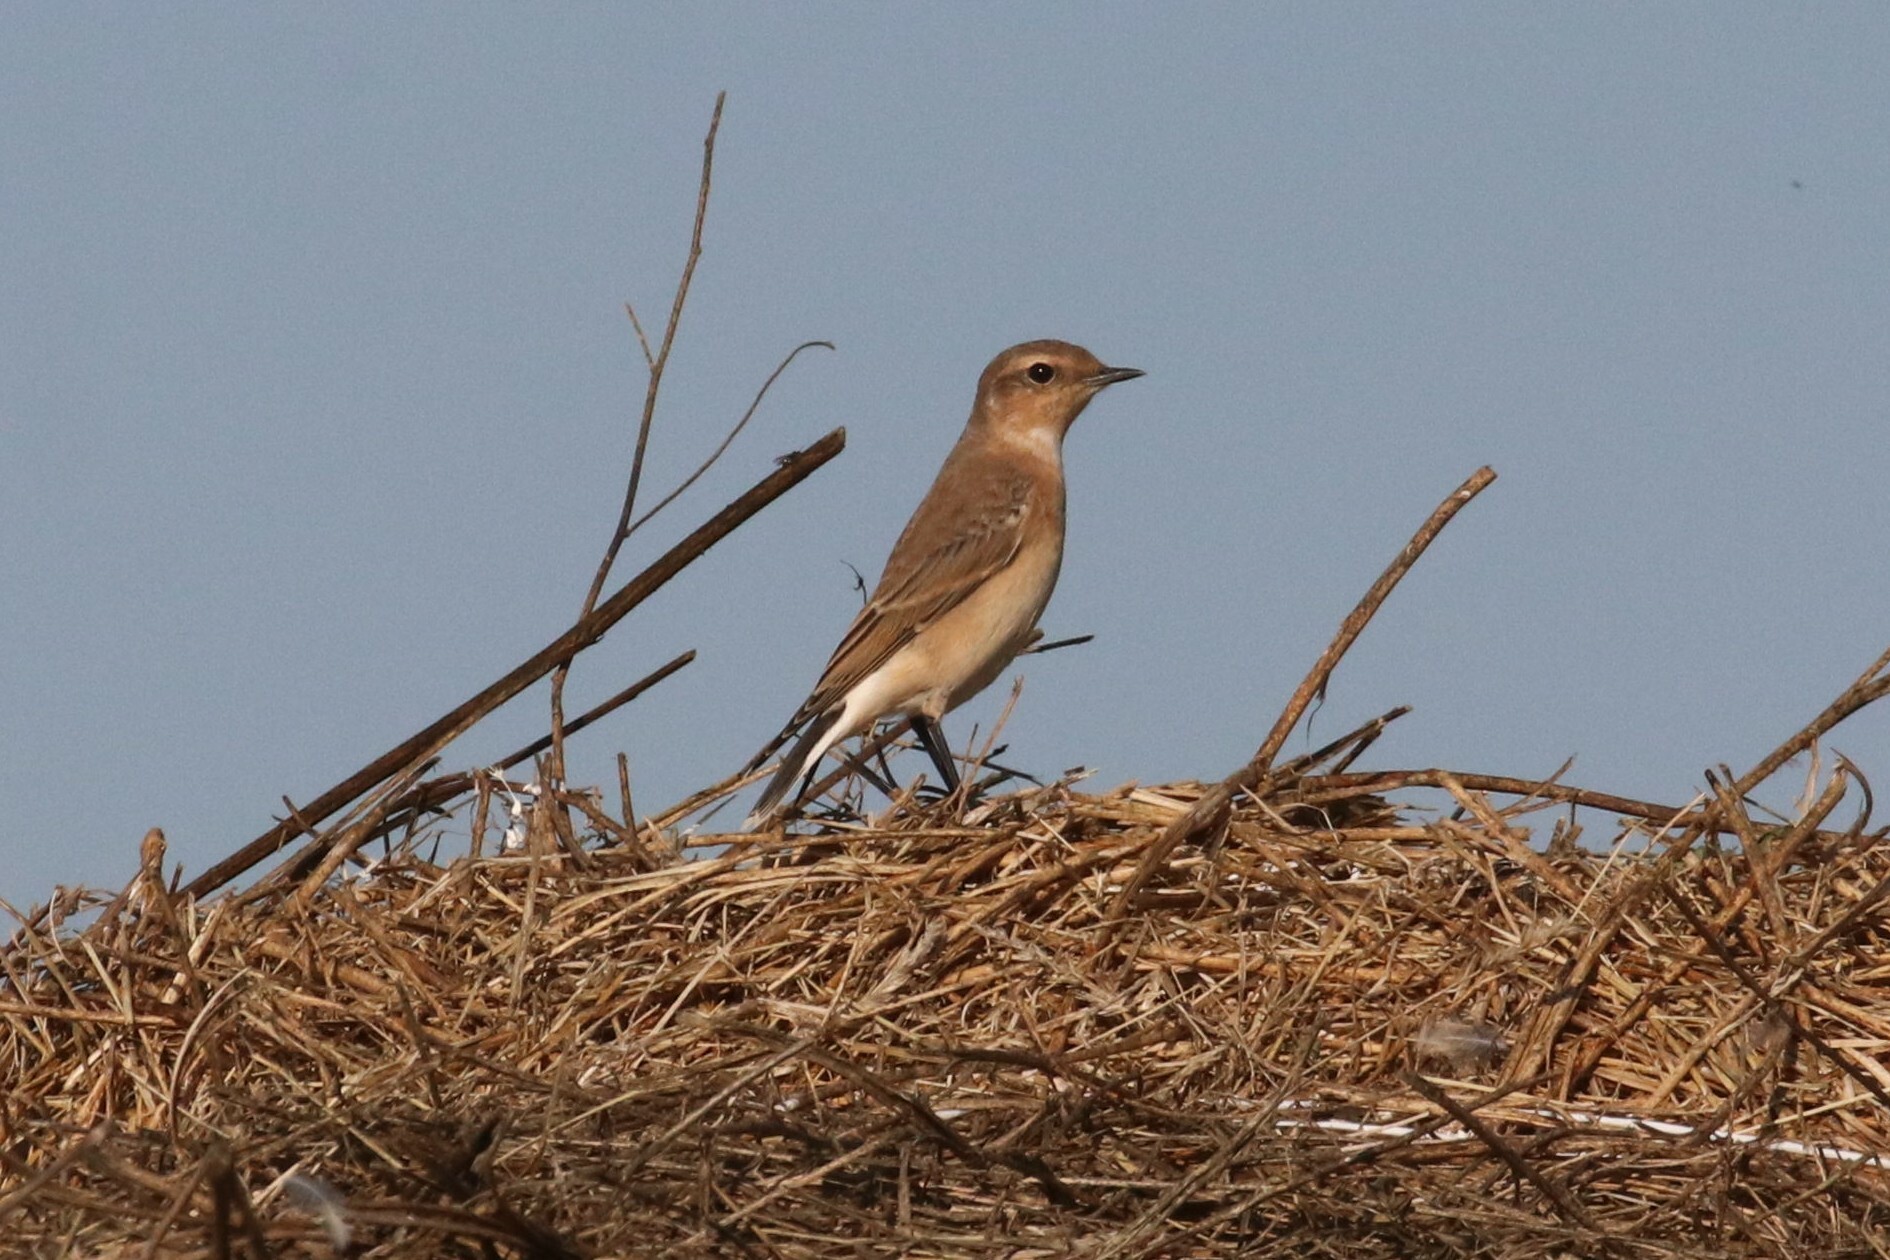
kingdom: Animalia
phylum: Chordata
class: Aves
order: Passeriformes
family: Muscicapidae
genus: Oenanthe
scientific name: Oenanthe oenanthe
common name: Northern wheatear
